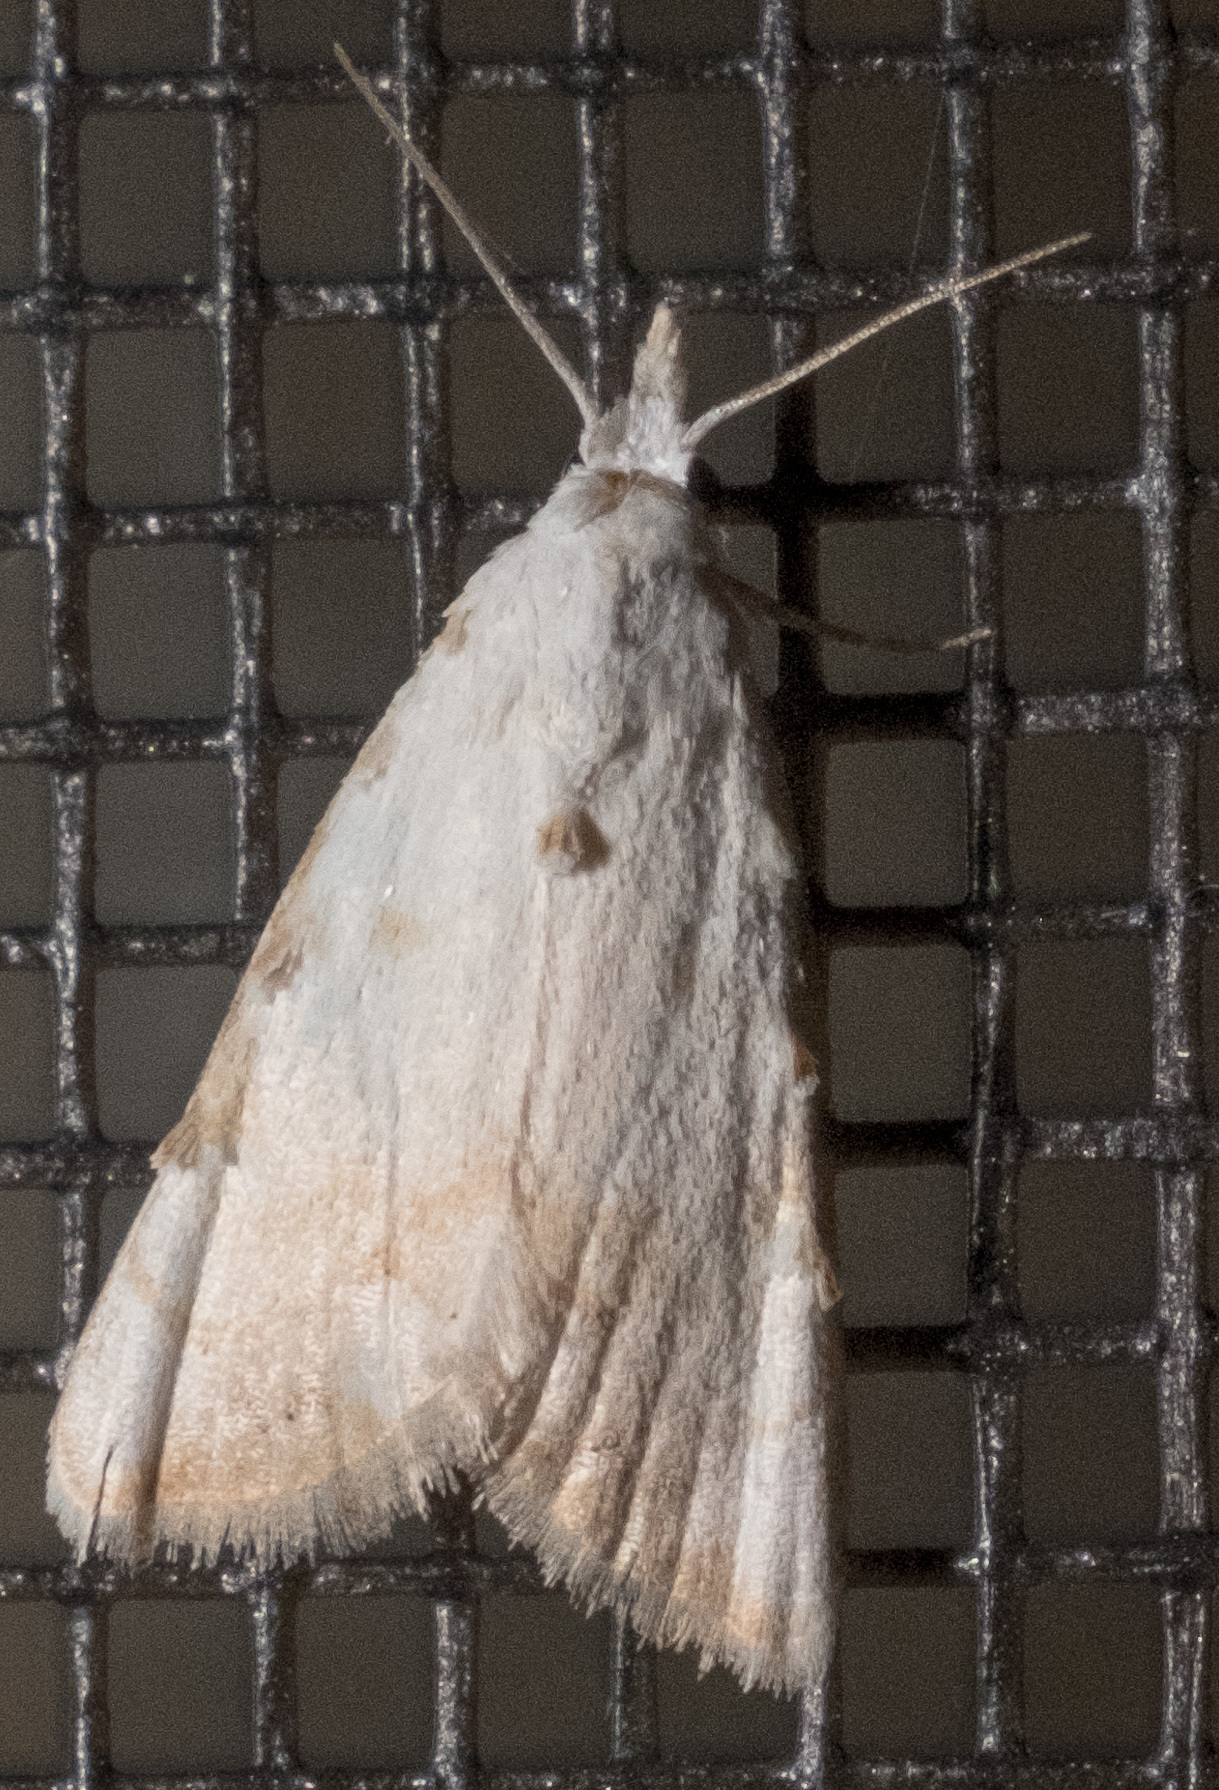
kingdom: Animalia
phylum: Arthropoda
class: Insecta
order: Lepidoptera
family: Nolidae
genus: Nola
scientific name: Nola cereella
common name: Sorghum webworm moth
